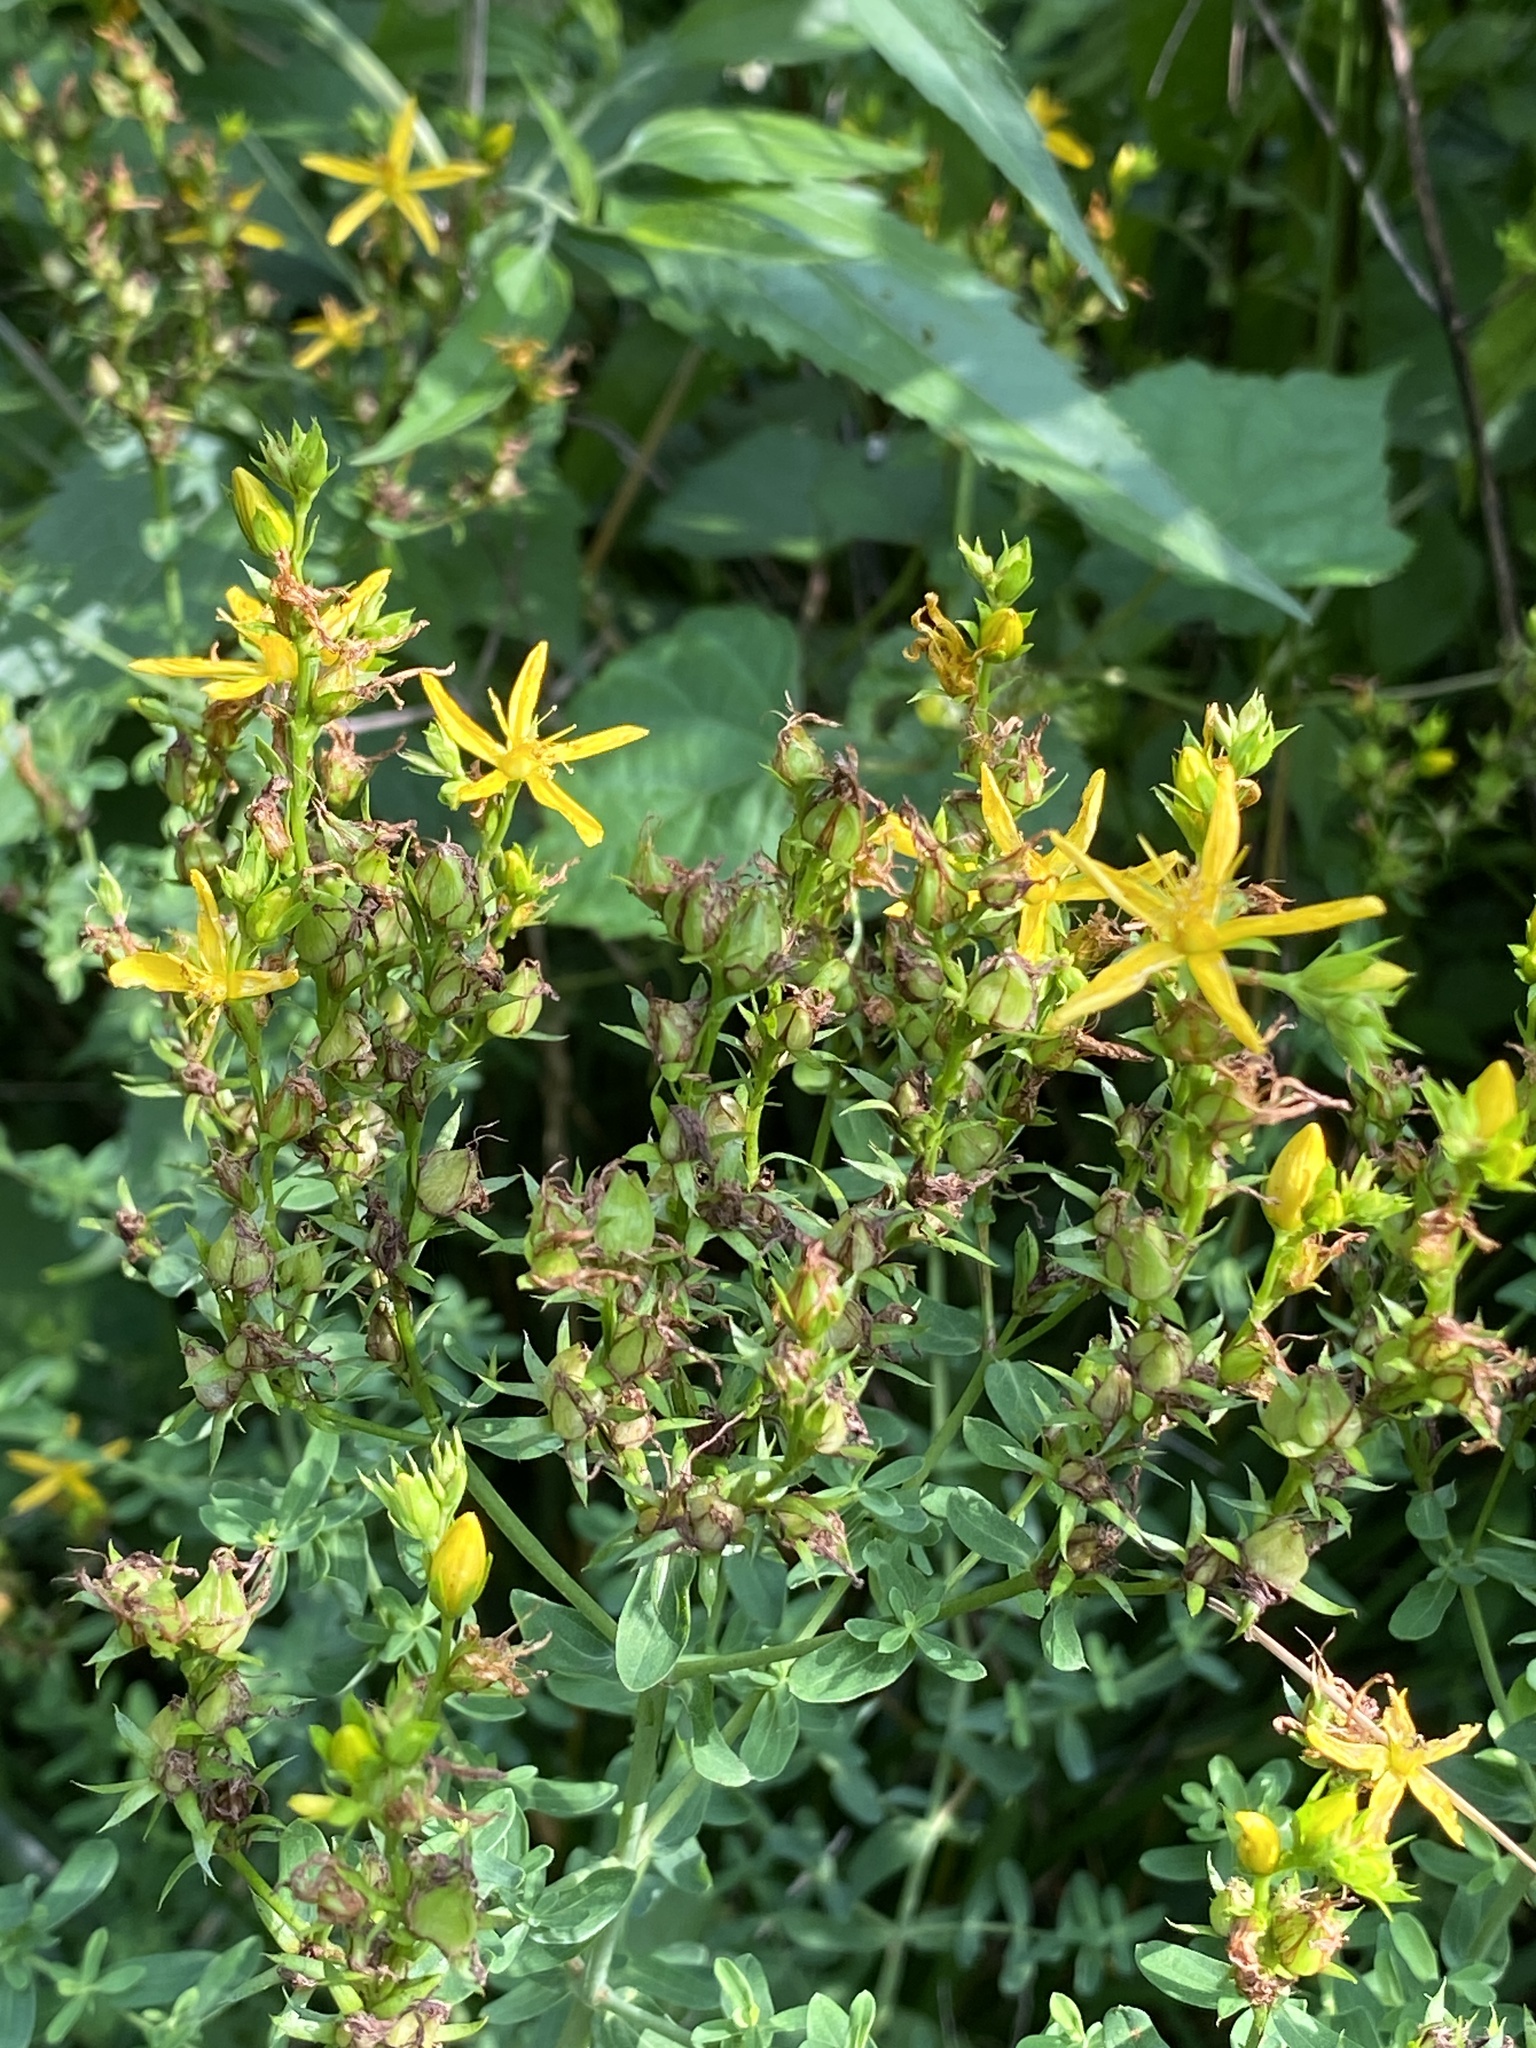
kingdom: Plantae
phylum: Tracheophyta
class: Magnoliopsida
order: Malpighiales
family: Hypericaceae
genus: Hypericum
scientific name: Hypericum perforatum
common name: Common st. johnswort
